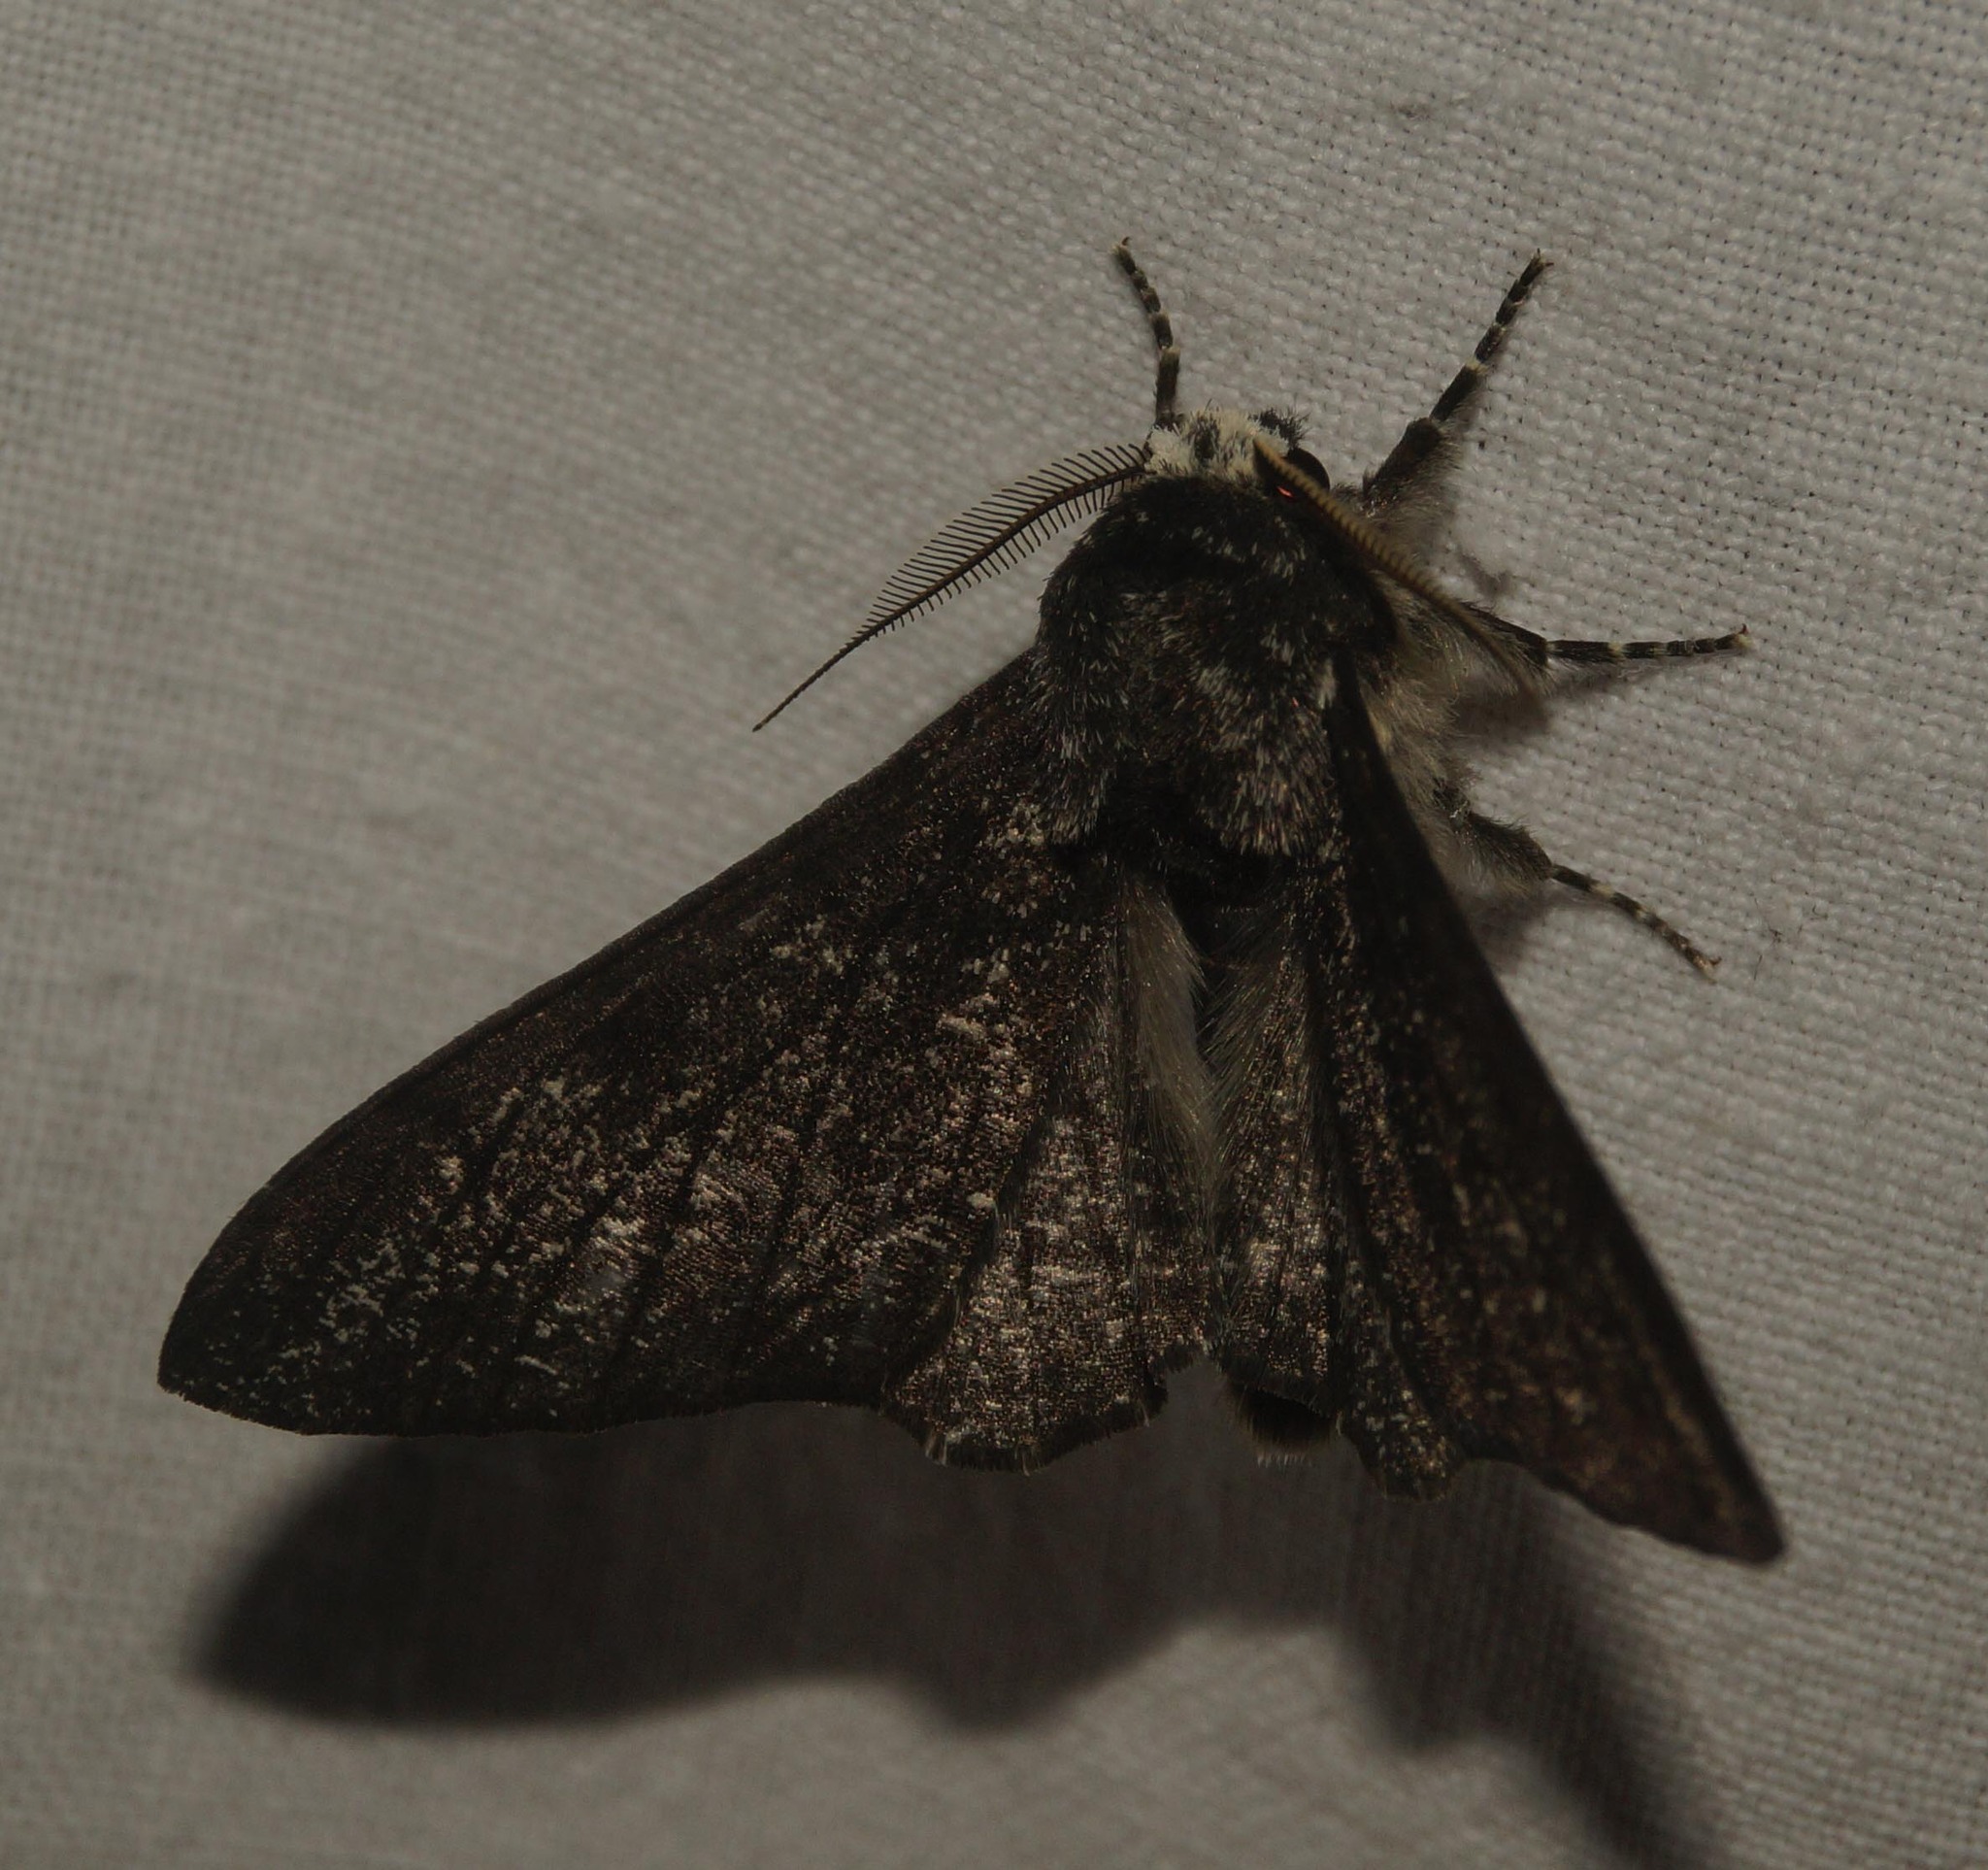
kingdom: Animalia
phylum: Arthropoda
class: Insecta
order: Lepidoptera
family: Geometridae
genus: Biston
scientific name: Biston betularia
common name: Peppered moth
